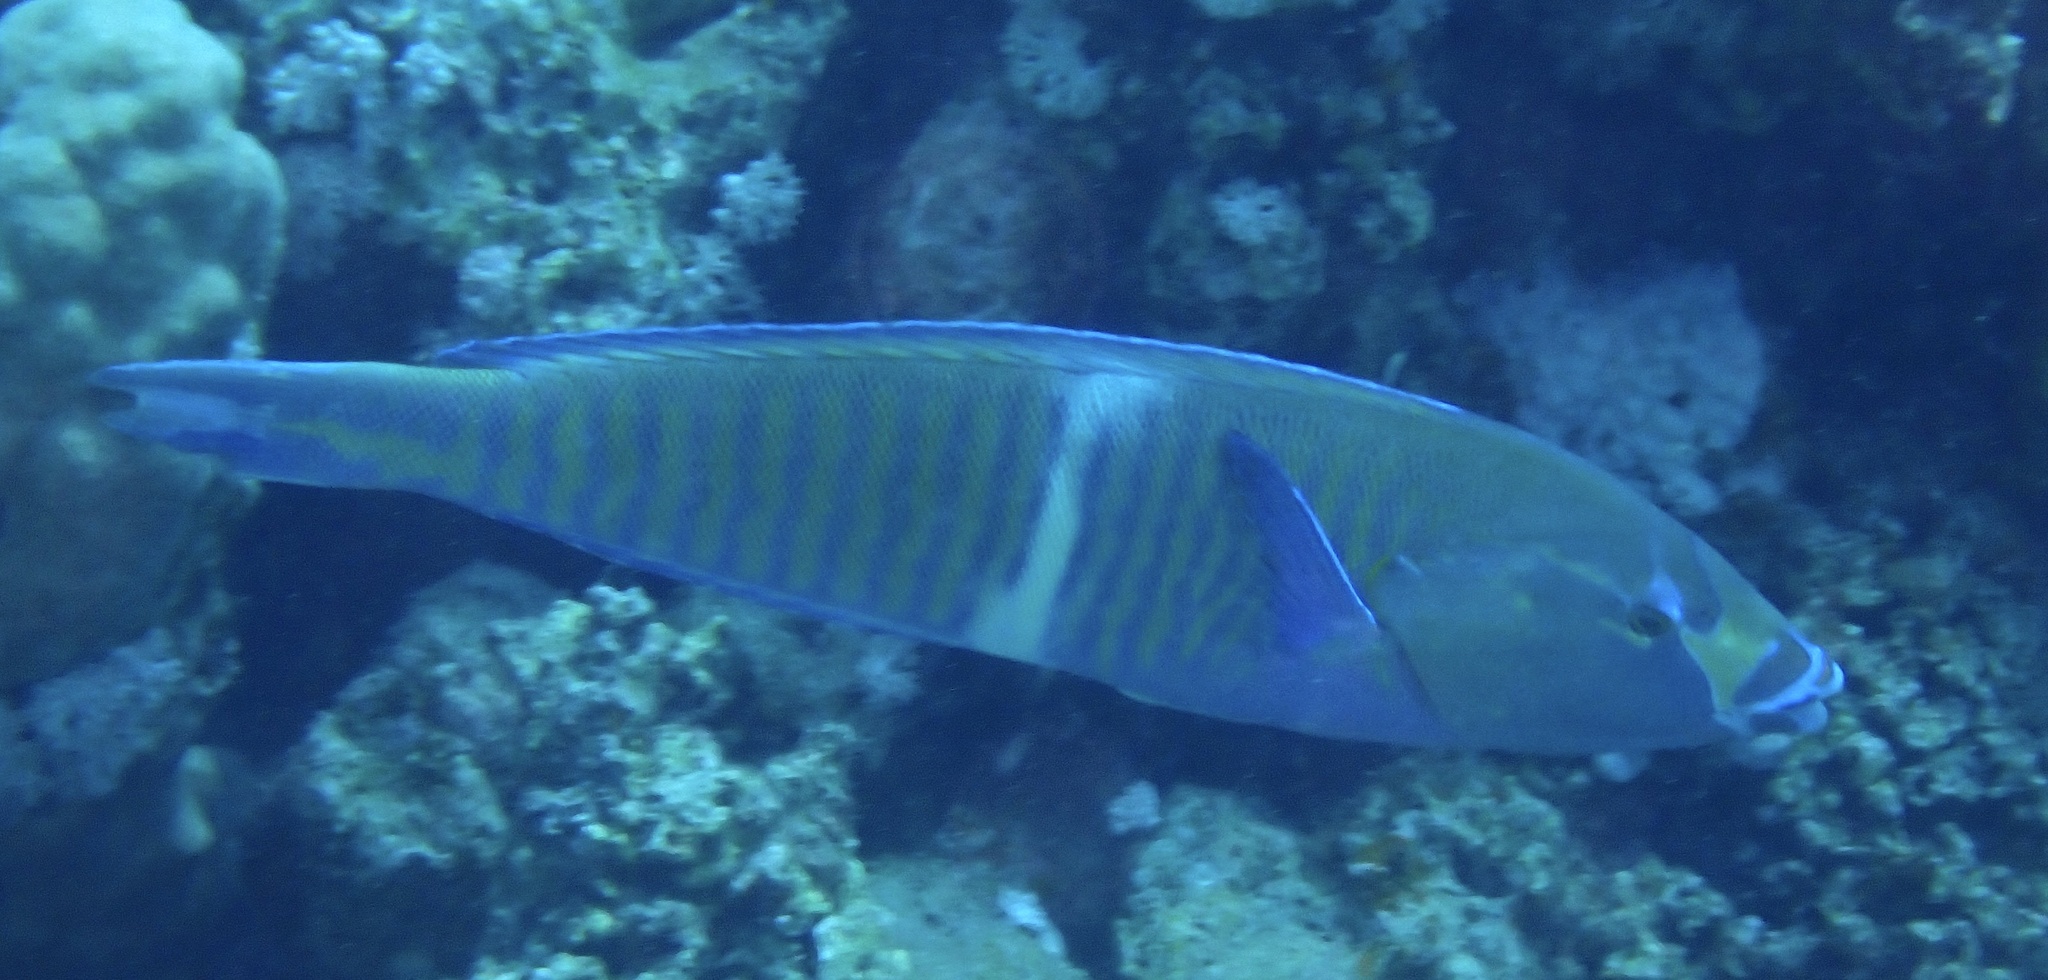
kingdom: Animalia
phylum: Chordata
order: Perciformes
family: Labridae
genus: Hologymnosus
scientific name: Hologymnosus annulatus
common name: Ring wrasse
